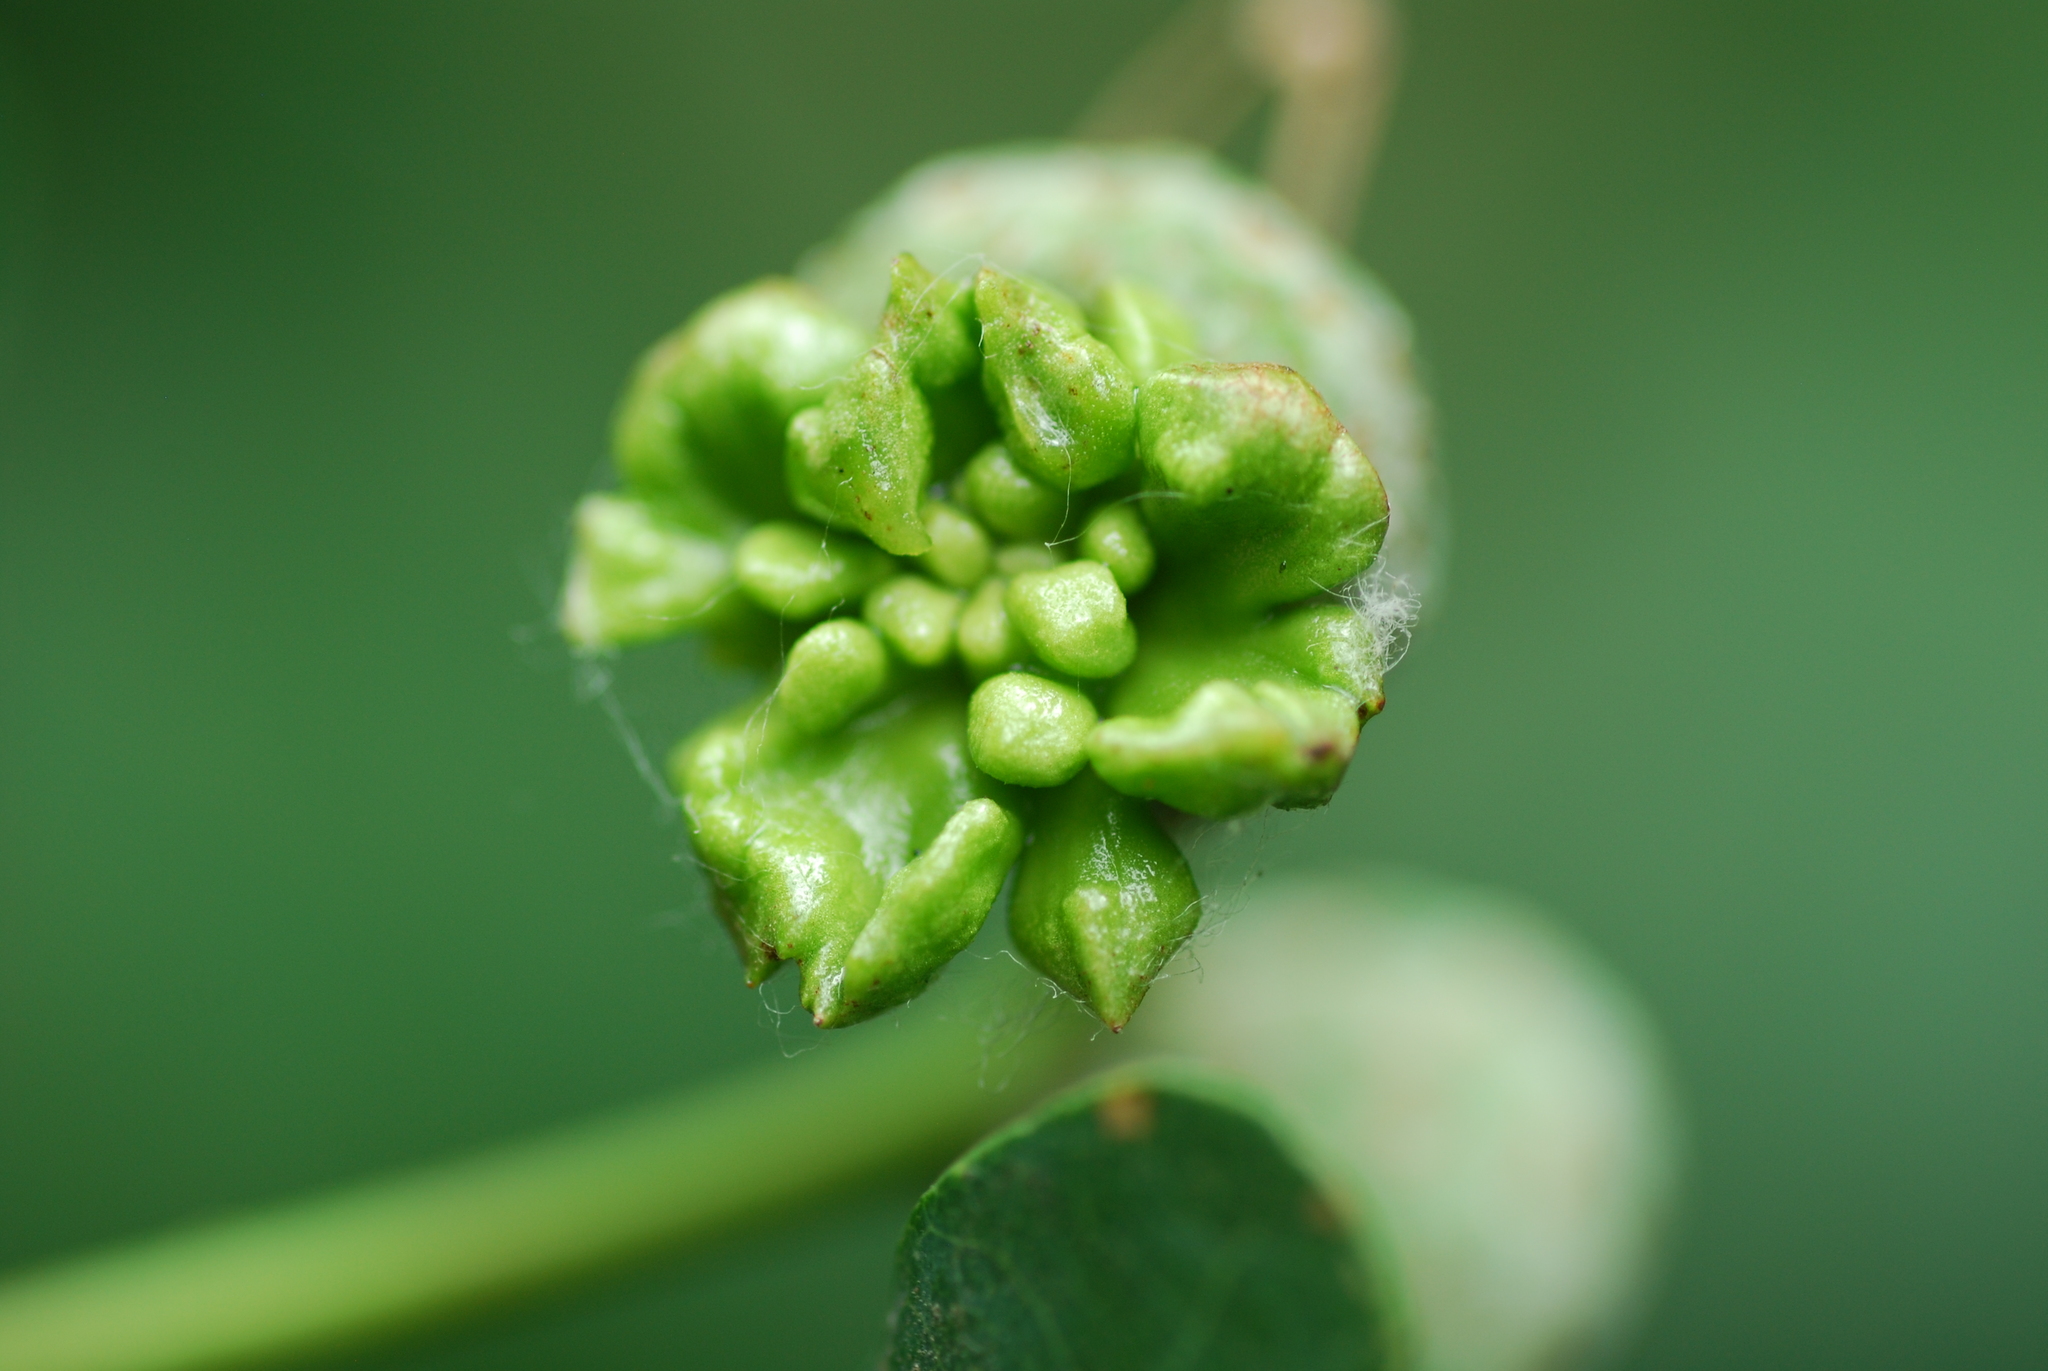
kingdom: Animalia
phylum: Arthropoda
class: Insecta
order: Hymenoptera
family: Cynipidae
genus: Andricus
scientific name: Andricus quercuscalicis
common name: Knopper gall
